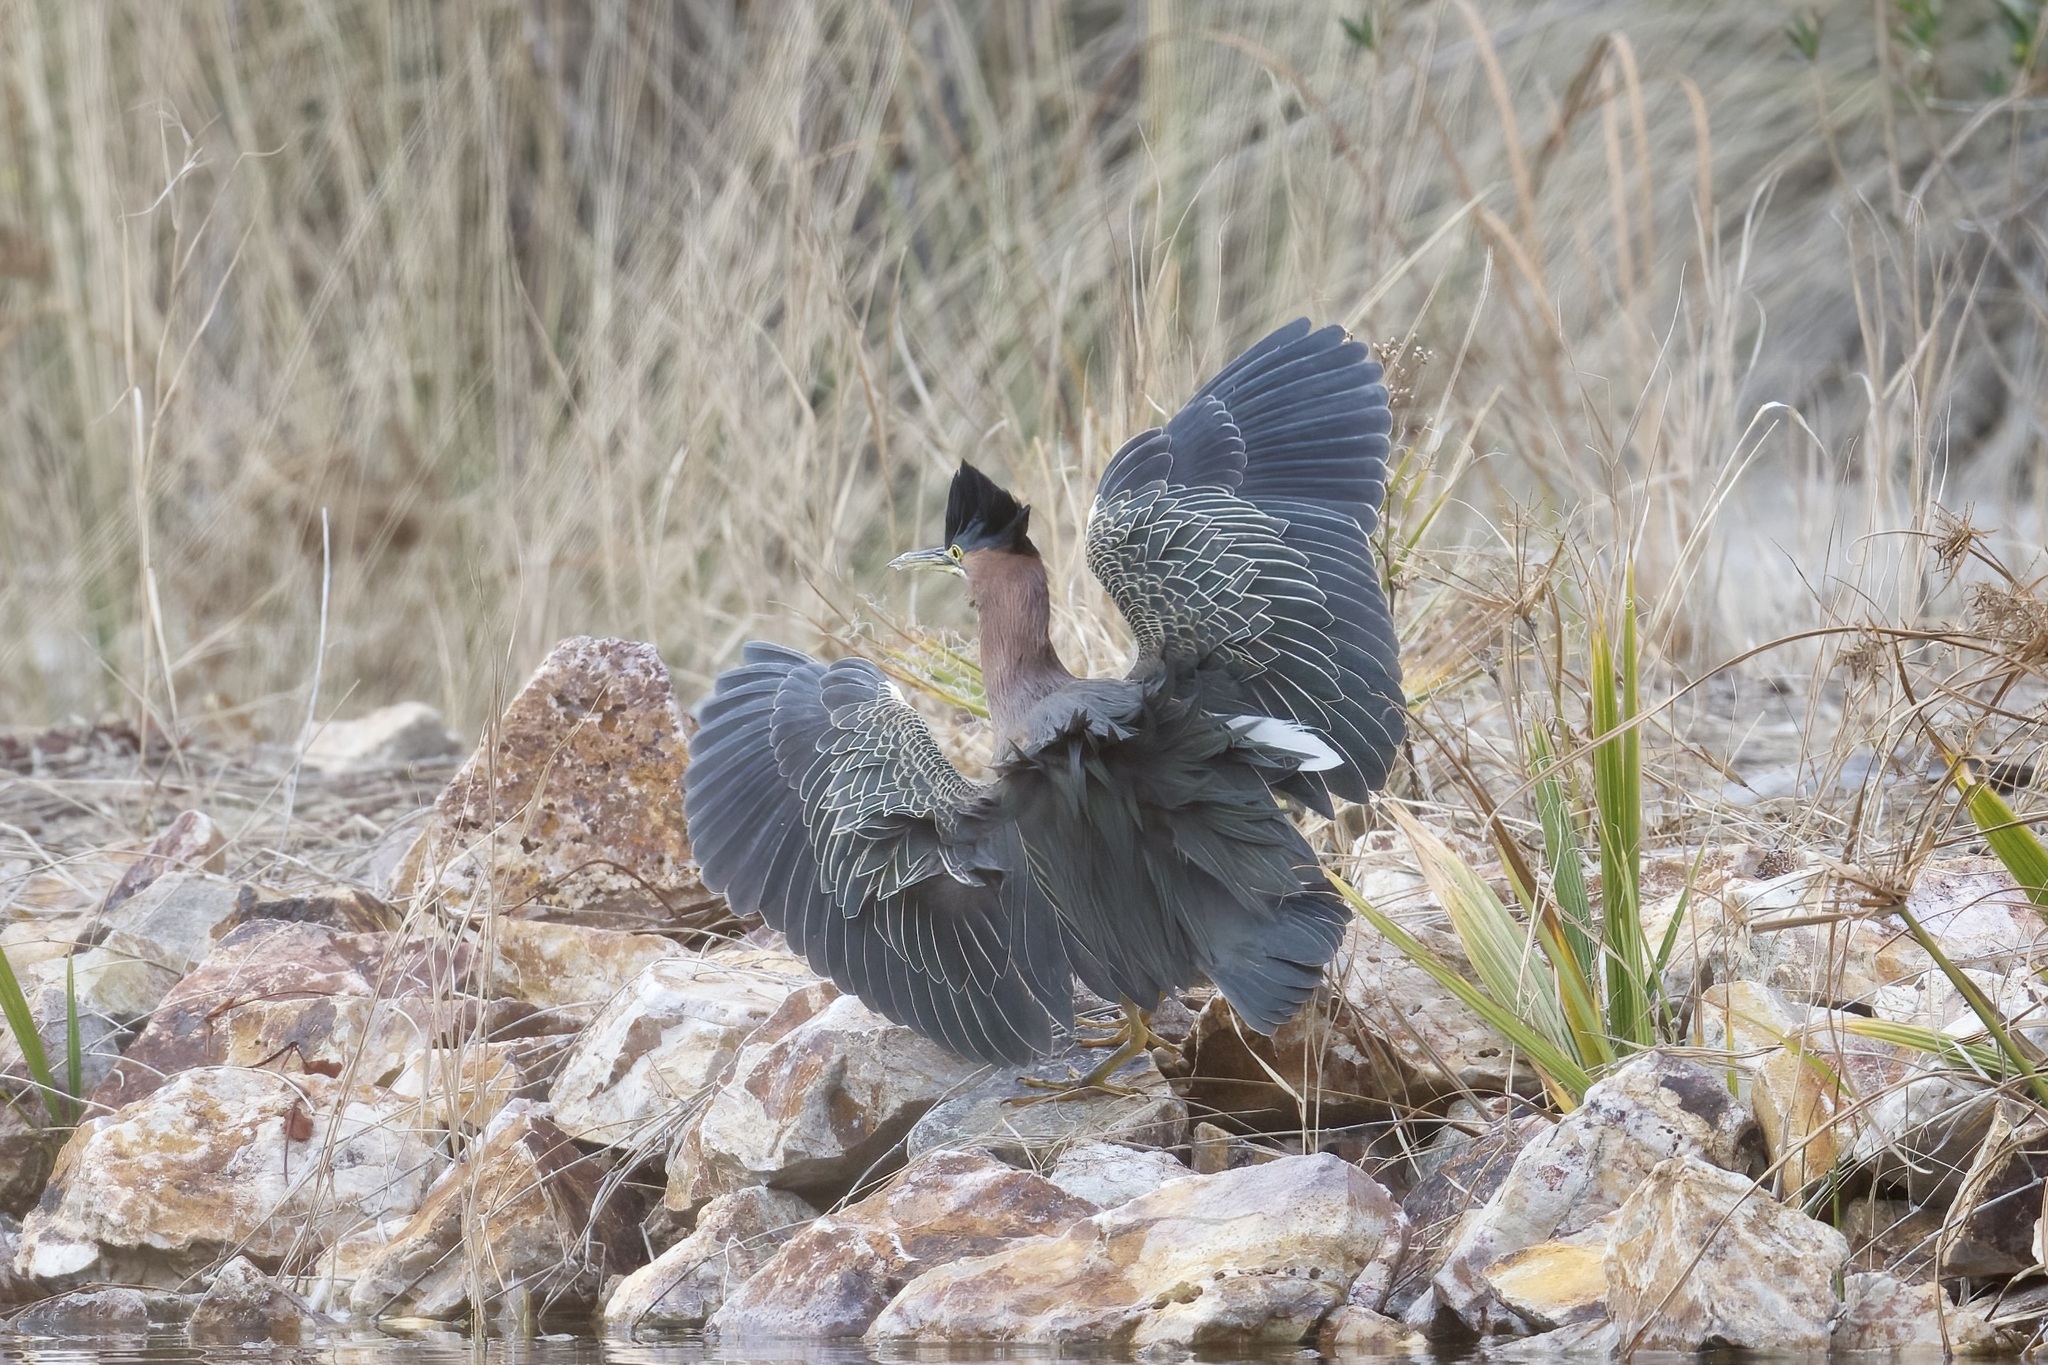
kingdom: Animalia
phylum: Chordata
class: Aves
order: Pelecaniformes
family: Ardeidae
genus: Butorides
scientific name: Butorides virescens
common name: Green heron
